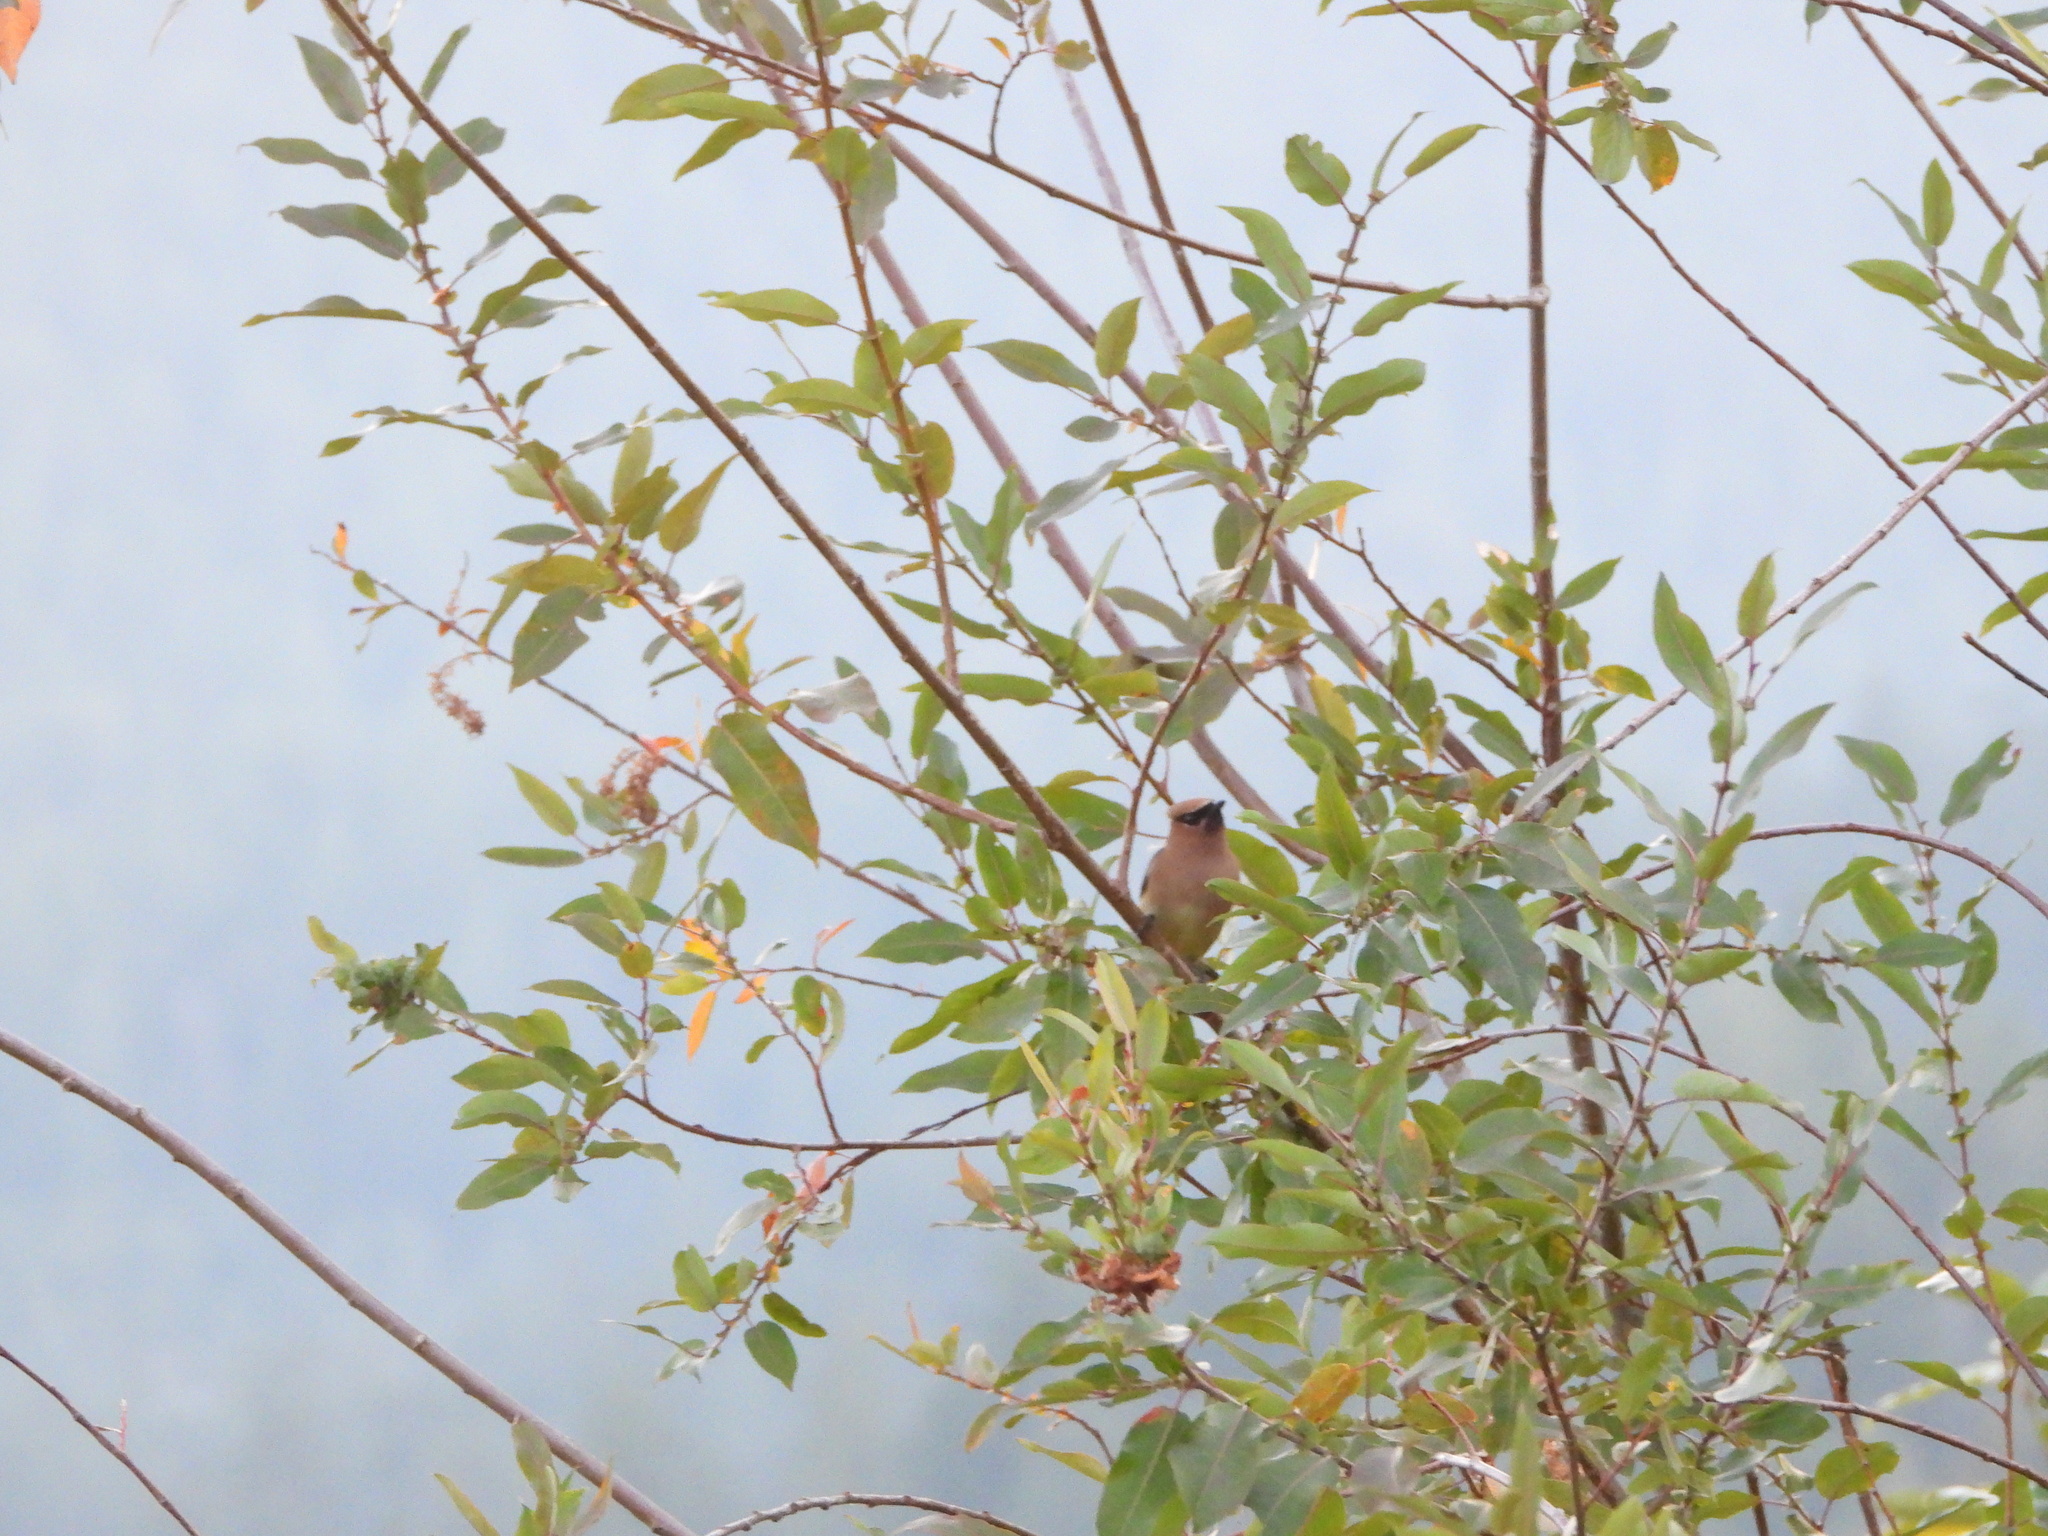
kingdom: Animalia
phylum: Chordata
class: Aves
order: Passeriformes
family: Bombycillidae
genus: Bombycilla
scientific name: Bombycilla cedrorum
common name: Cedar waxwing
